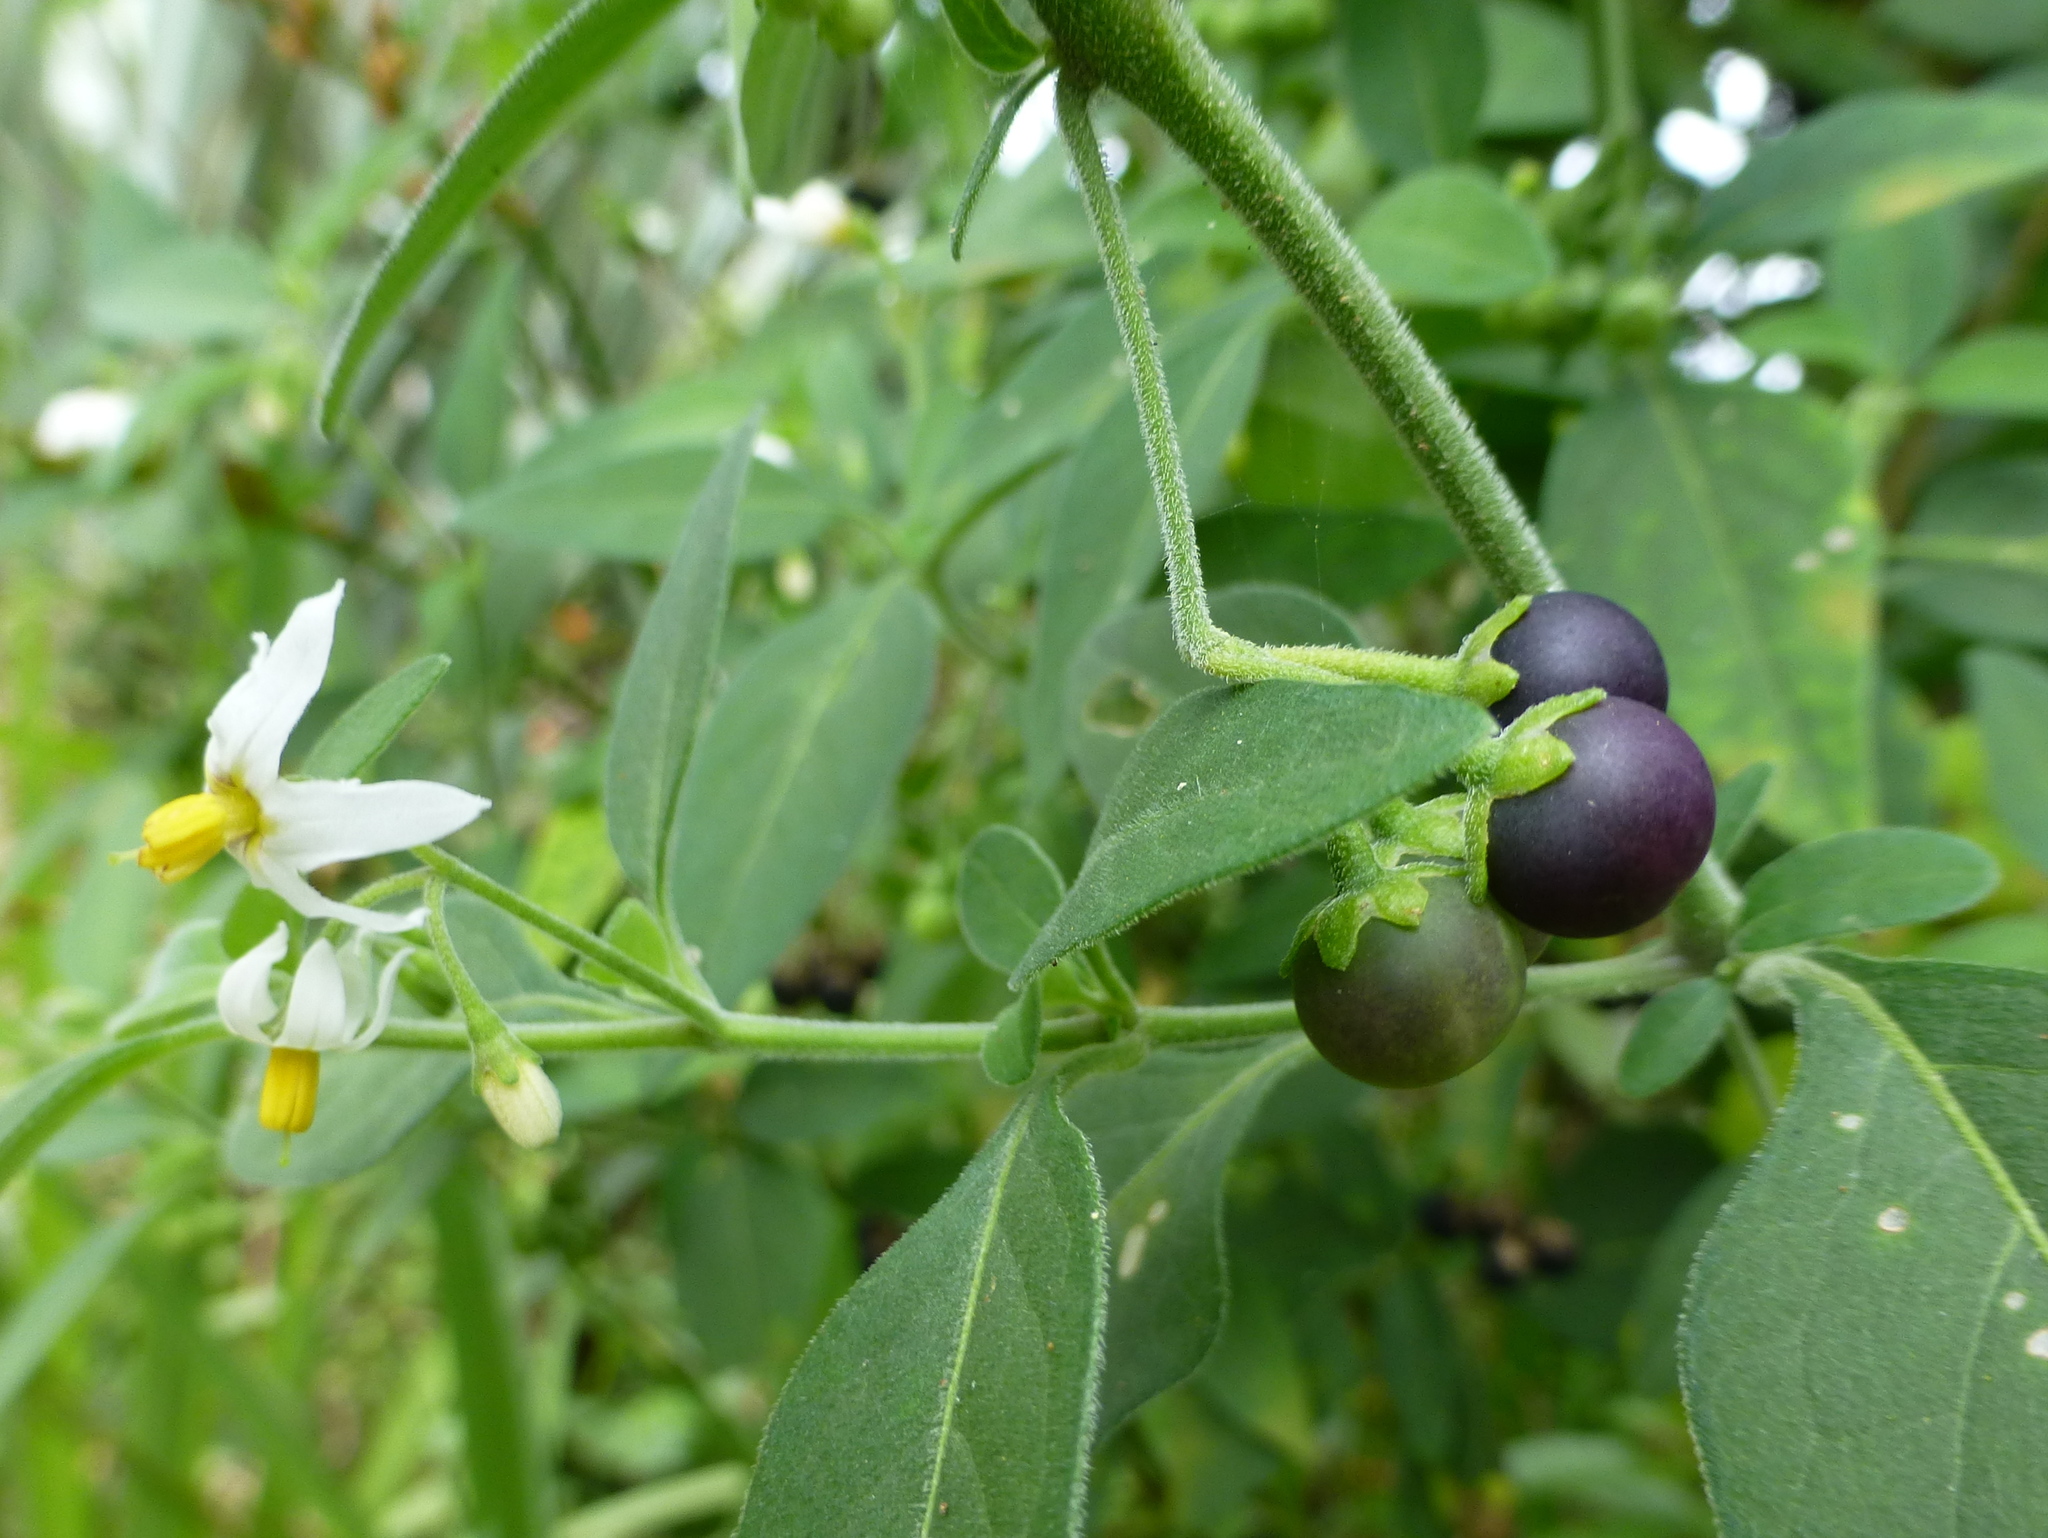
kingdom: Plantae
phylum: Tracheophyta
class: Magnoliopsida
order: Solanales
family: Solanaceae
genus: Solanum
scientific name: Solanum chenopodioides
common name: Tall nightshade
